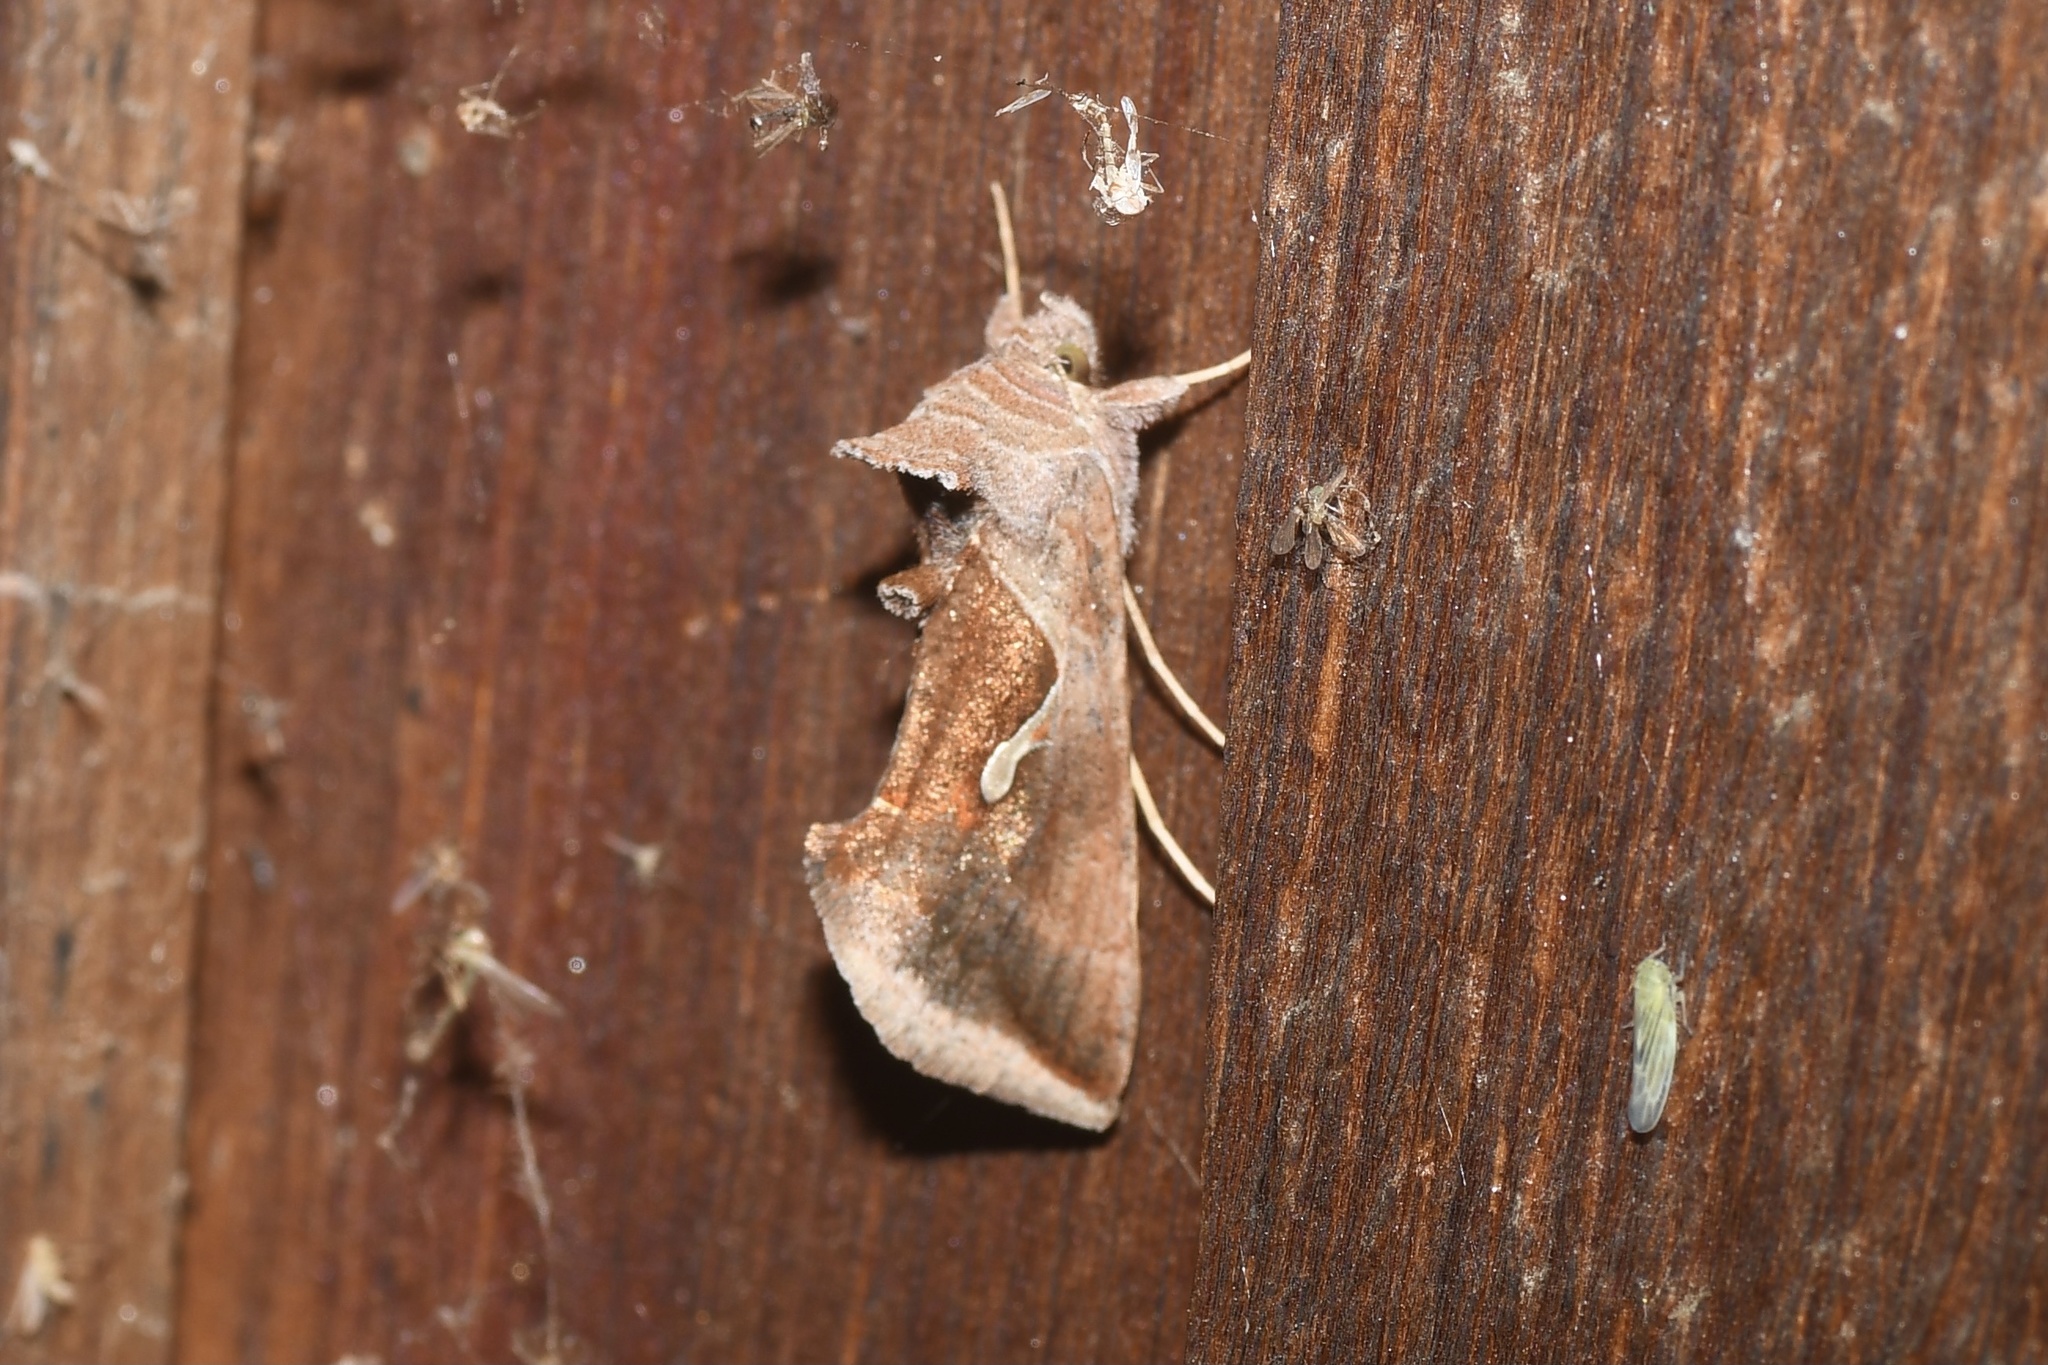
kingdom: Animalia
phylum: Arthropoda
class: Insecta
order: Lepidoptera
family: Noctuidae
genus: Anagrapha
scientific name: Anagrapha falcifera
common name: Celery looper
